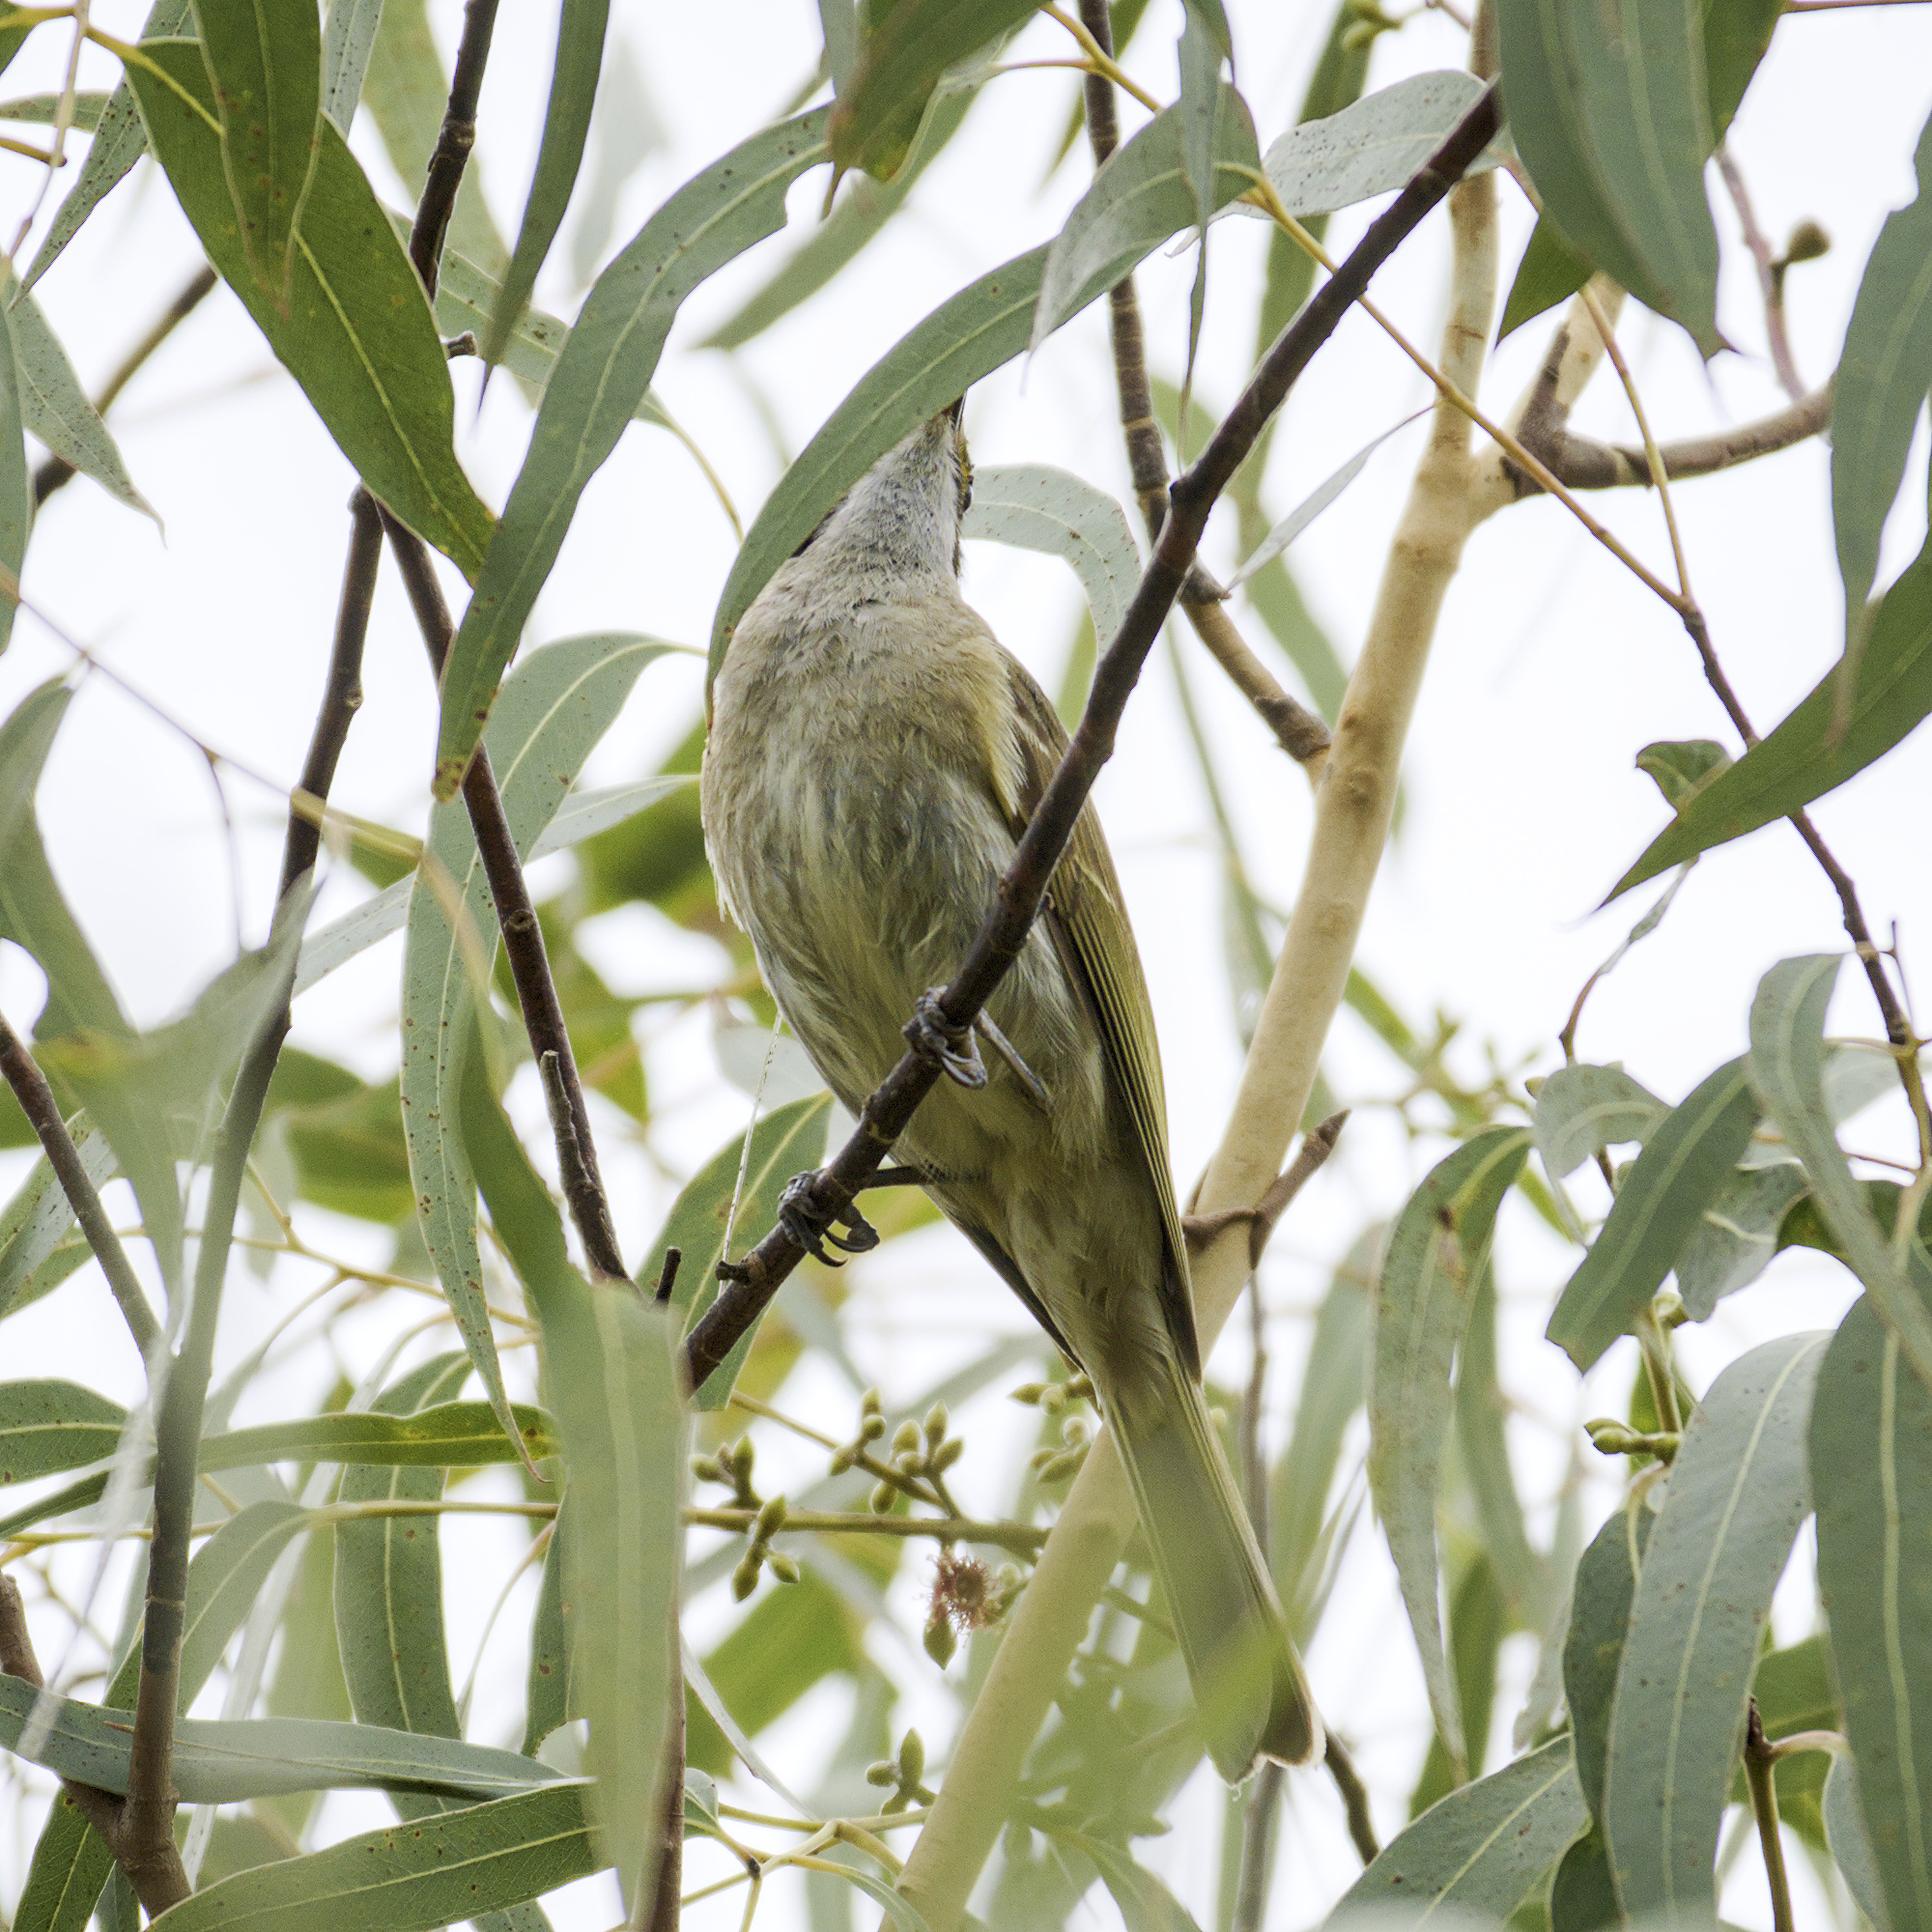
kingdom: Animalia
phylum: Chordata
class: Aves
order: Passeriformes
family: Meliphagidae
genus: Caligavis
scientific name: Caligavis chrysops
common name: Yellow-faced honeyeater
